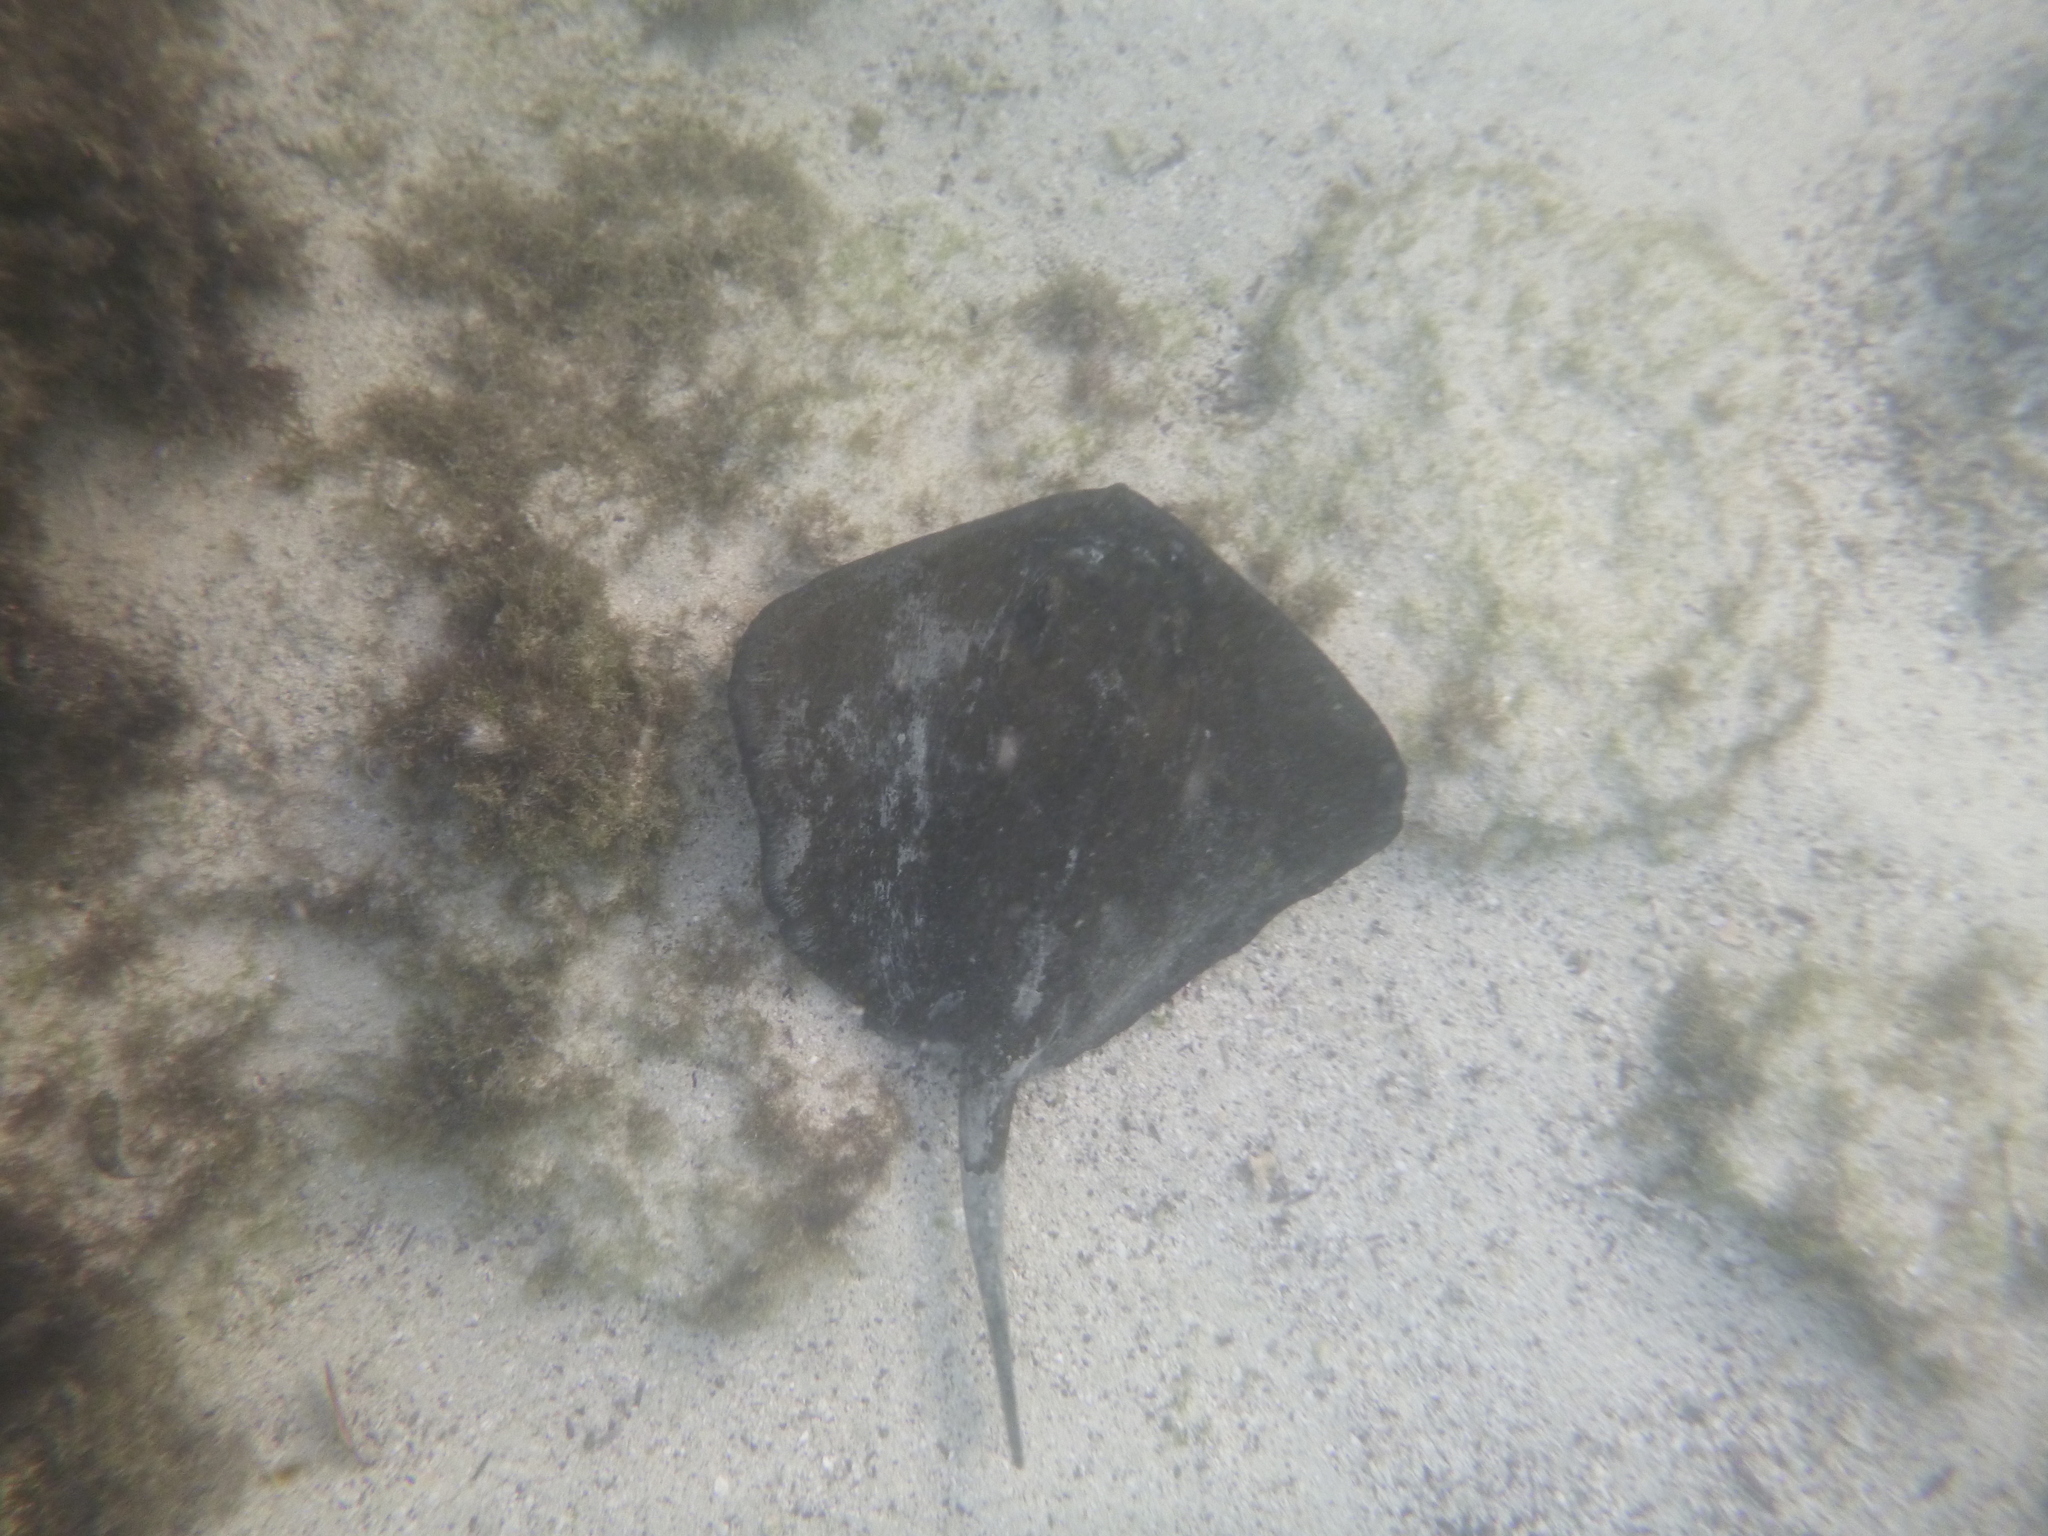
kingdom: Animalia
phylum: Chordata
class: Elasmobranchii
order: Myliobatiformes
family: Dasyatidae
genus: Hypanus
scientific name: Hypanus dipterurus
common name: Diamond stingray
